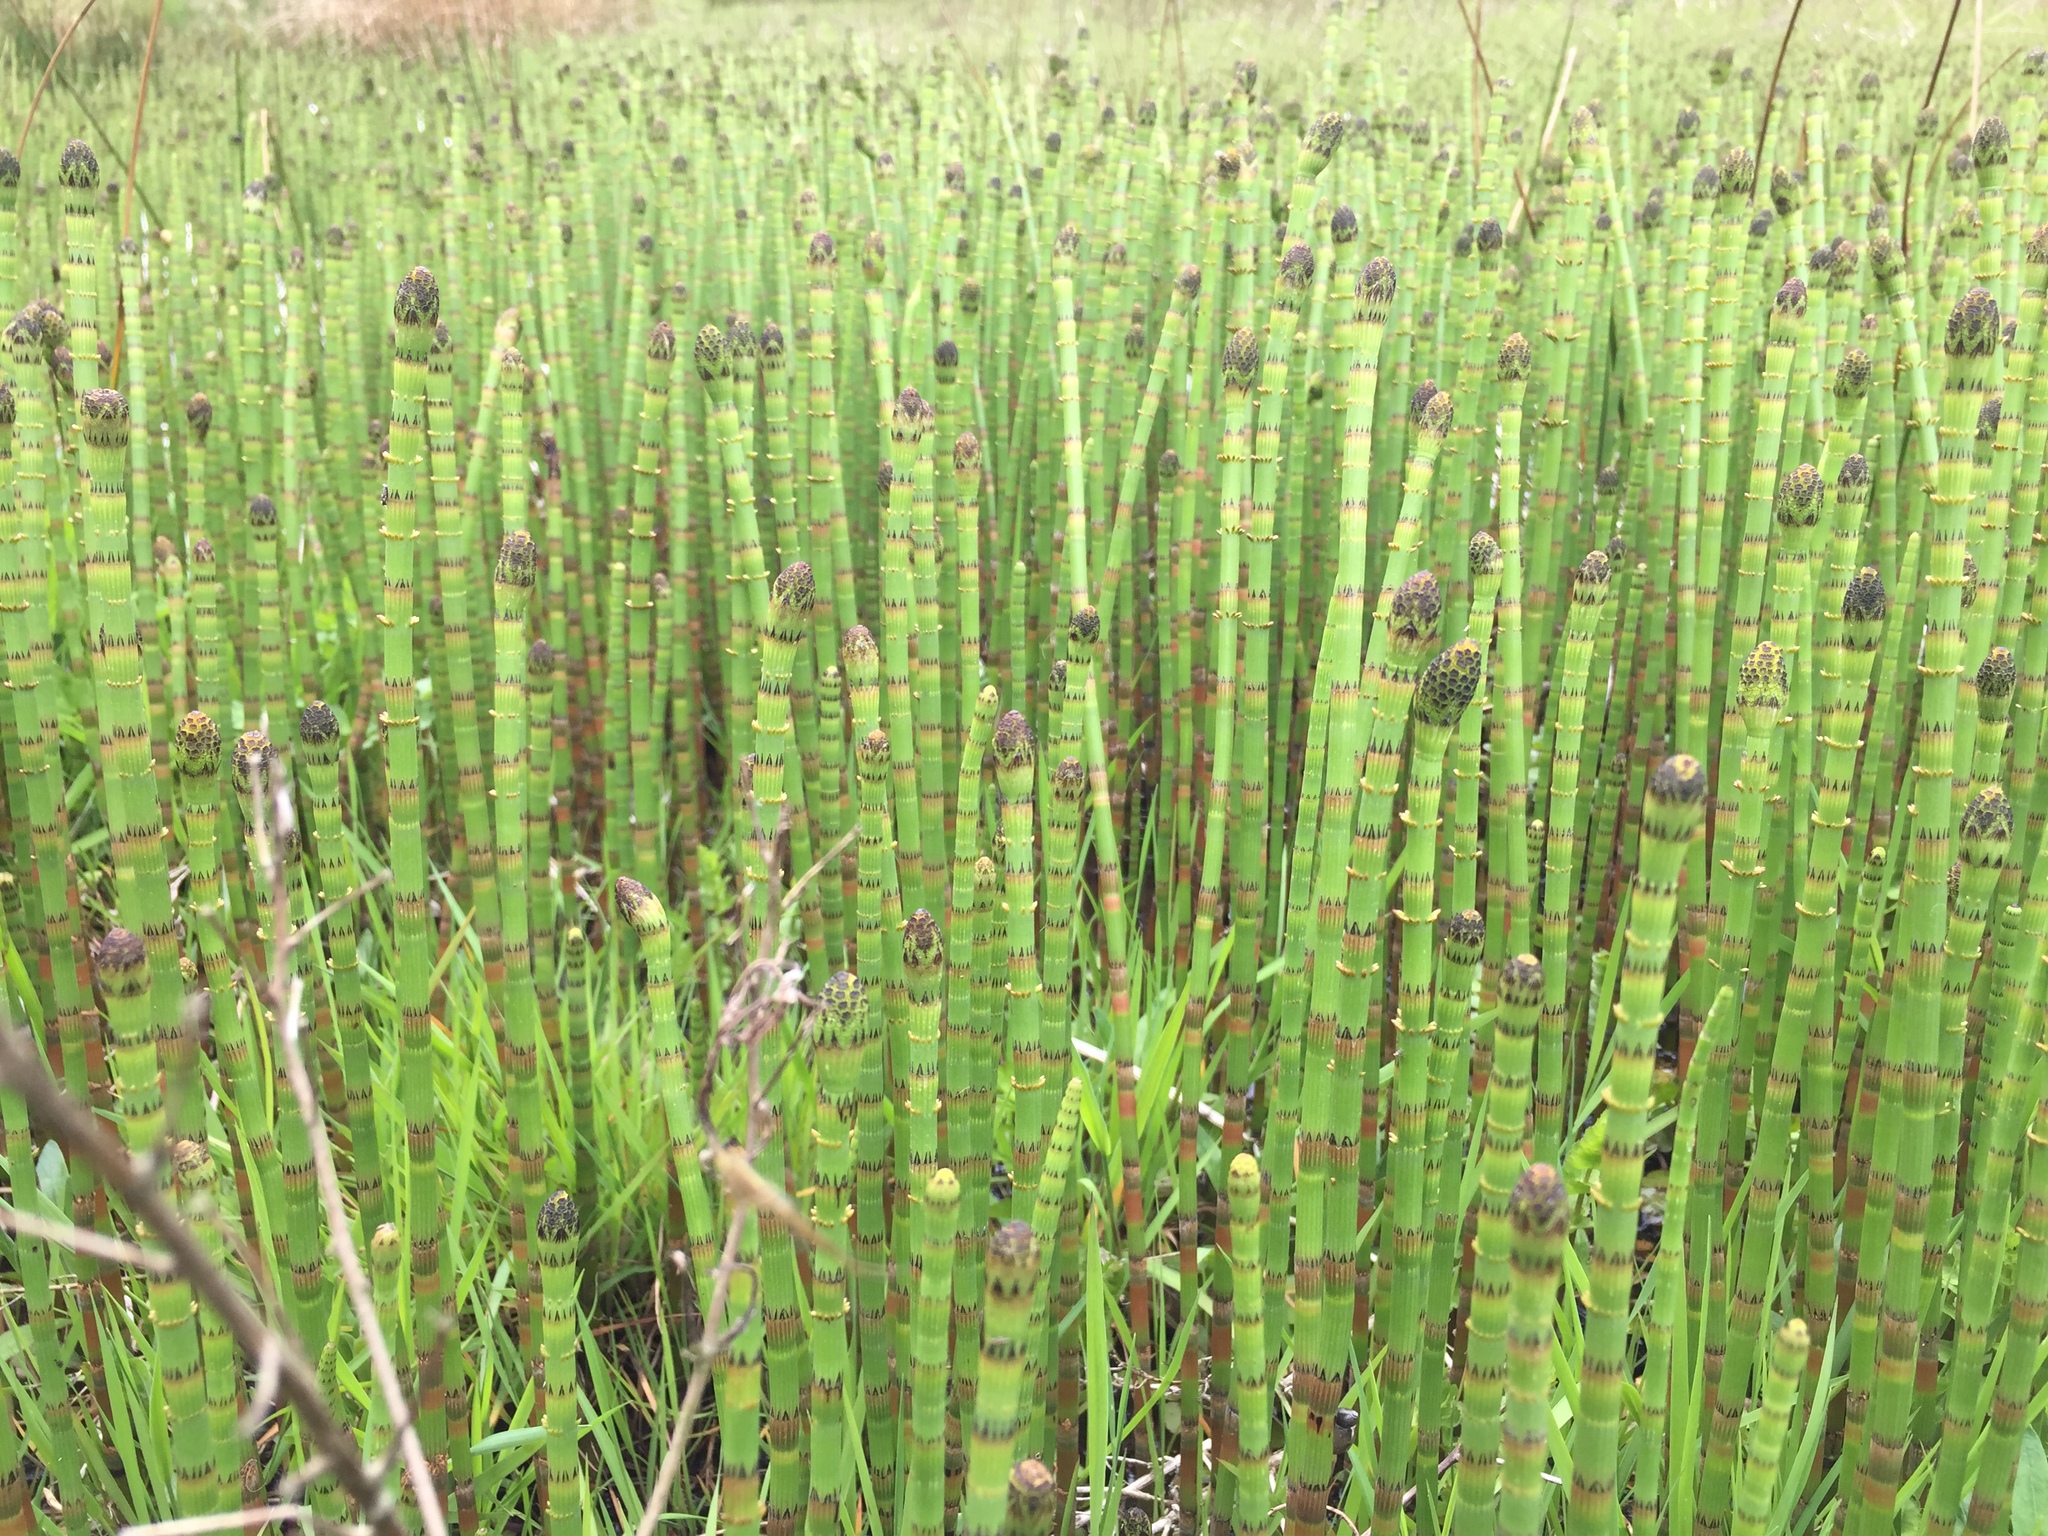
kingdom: Plantae
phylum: Tracheophyta
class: Polypodiopsida
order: Equisetales
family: Equisetaceae
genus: Equisetum
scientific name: Equisetum fluviatile
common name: Water horsetail
